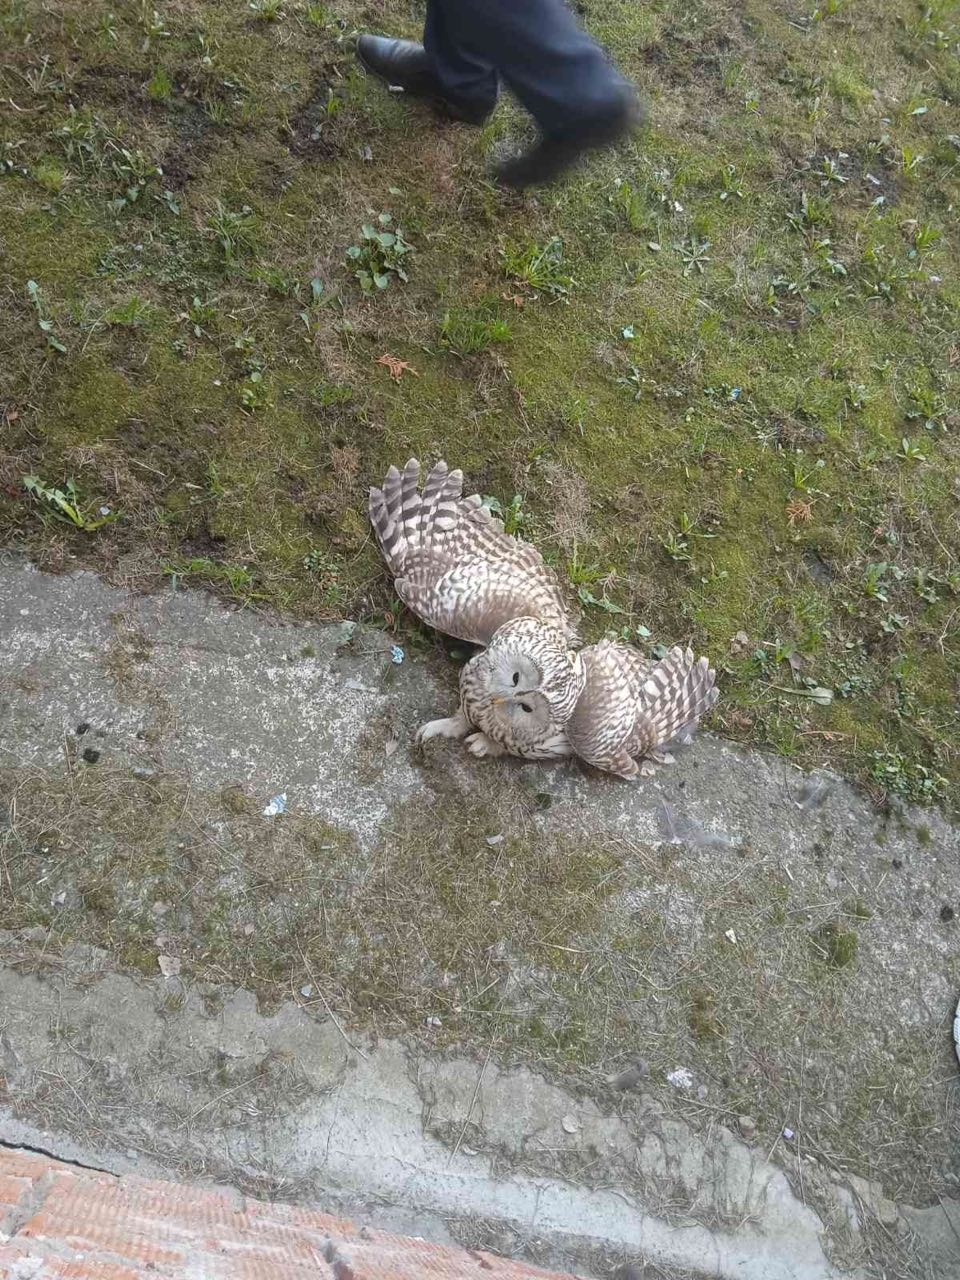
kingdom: Animalia
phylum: Chordata
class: Aves
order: Strigiformes
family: Strigidae
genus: Strix
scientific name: Strix uralensis
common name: Ural owl
